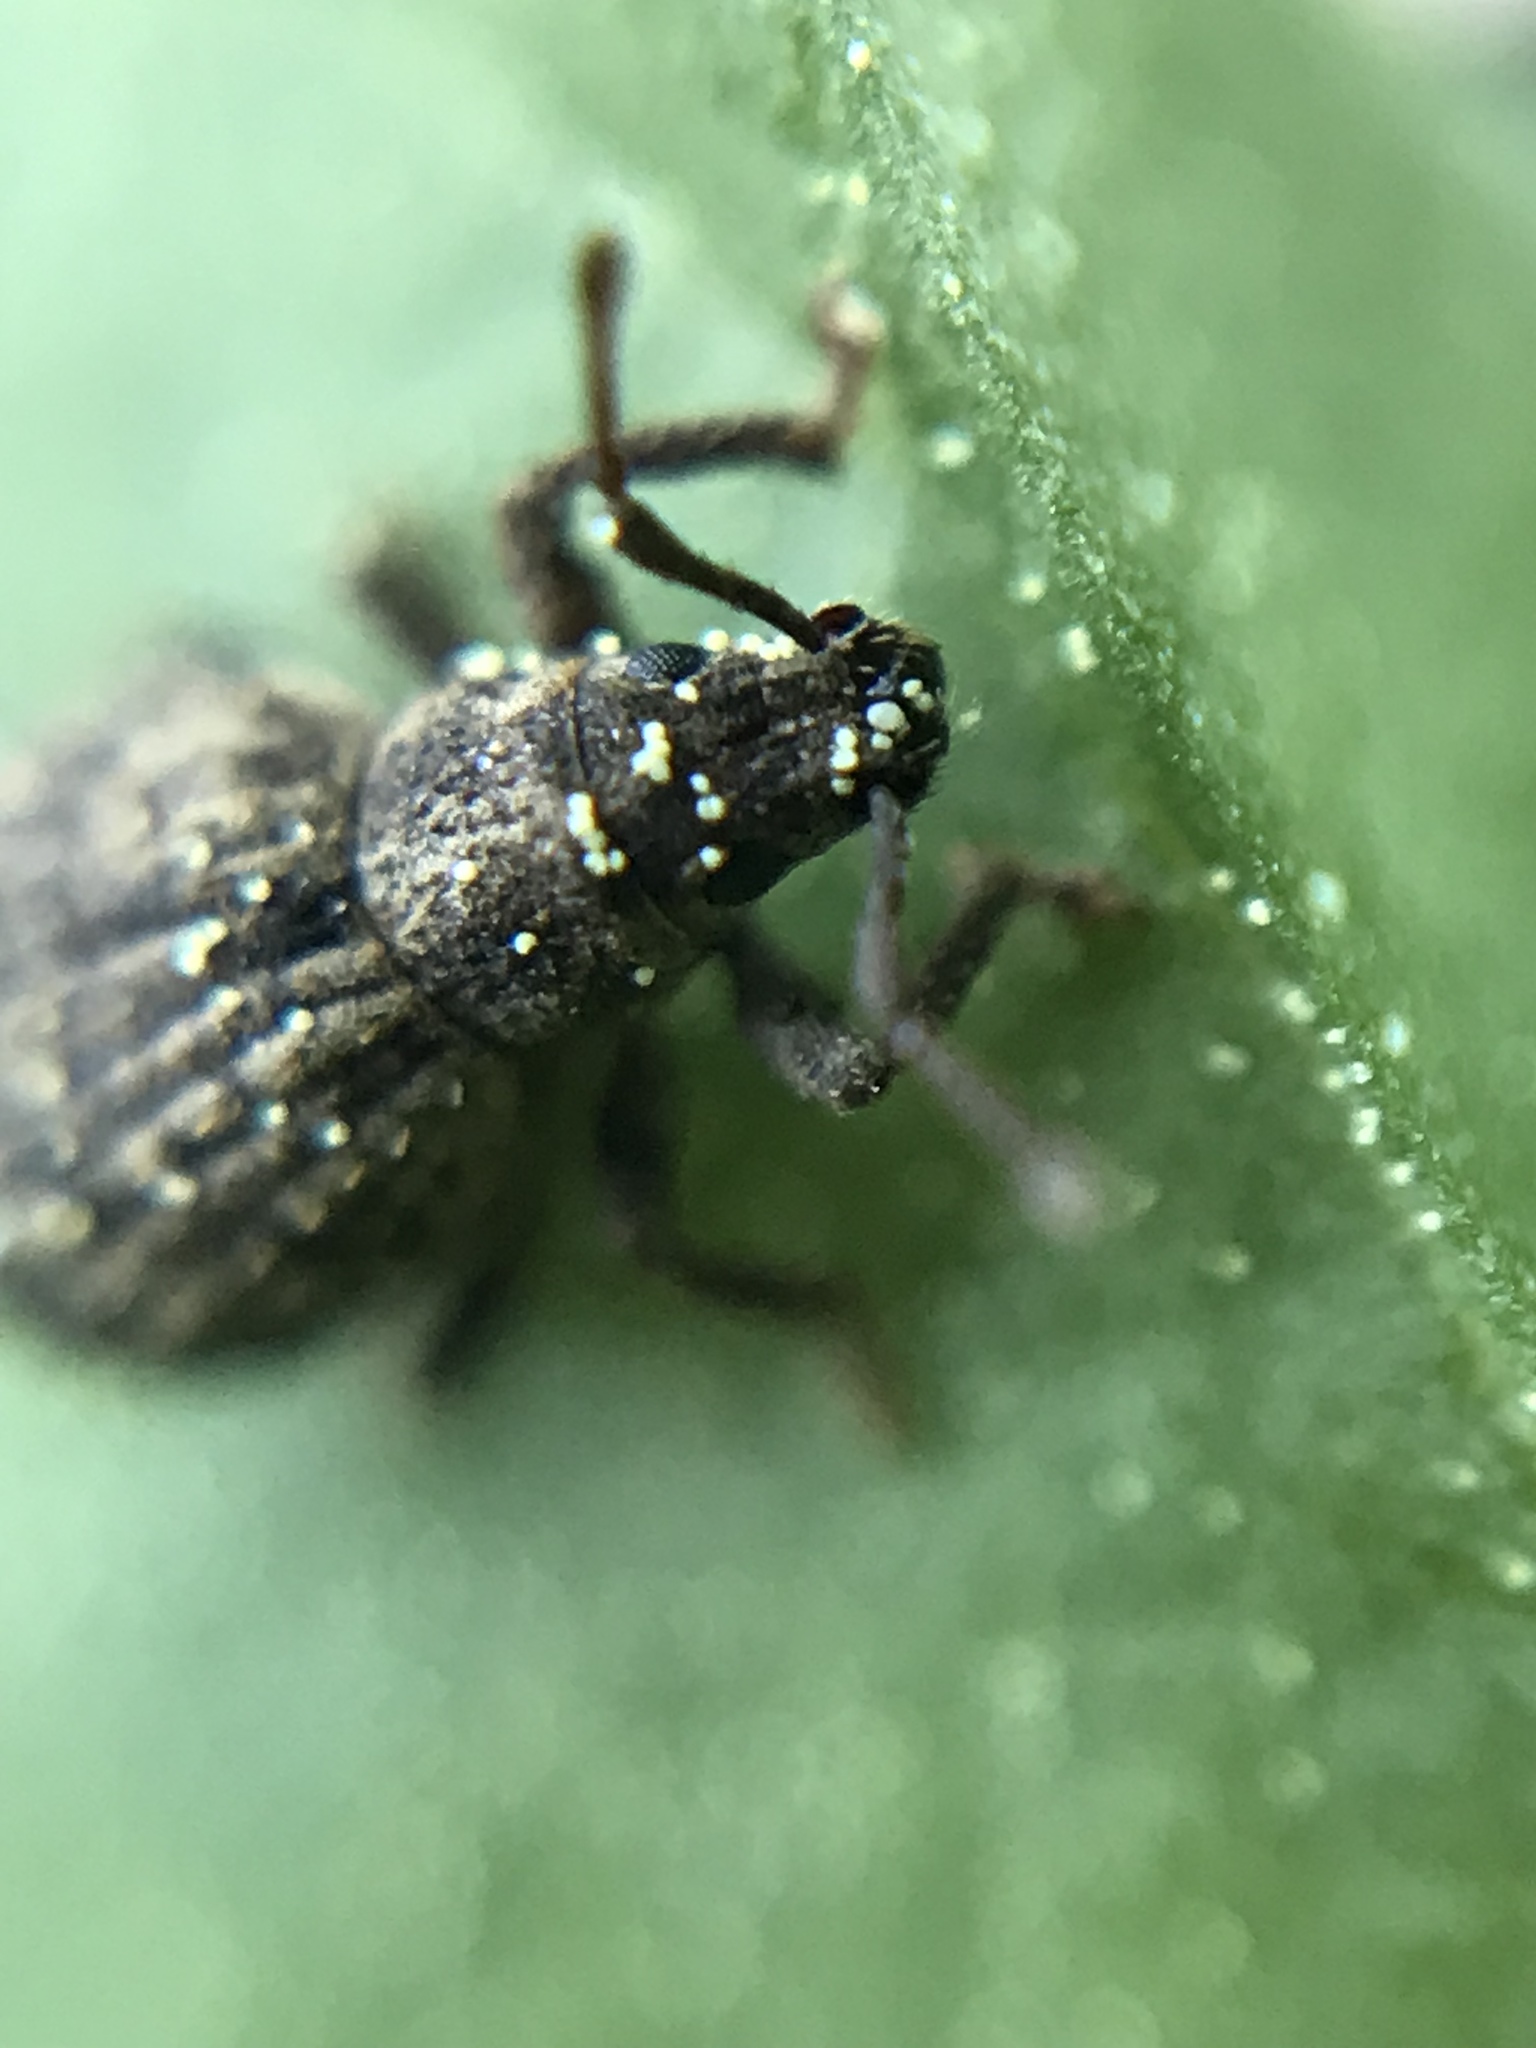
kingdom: Animalia
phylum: Arthropoda
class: Insecta
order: Coleoptera
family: Curculionidae
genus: Myosides
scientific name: Myosides seriehispidus
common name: Broadnosed weevil
